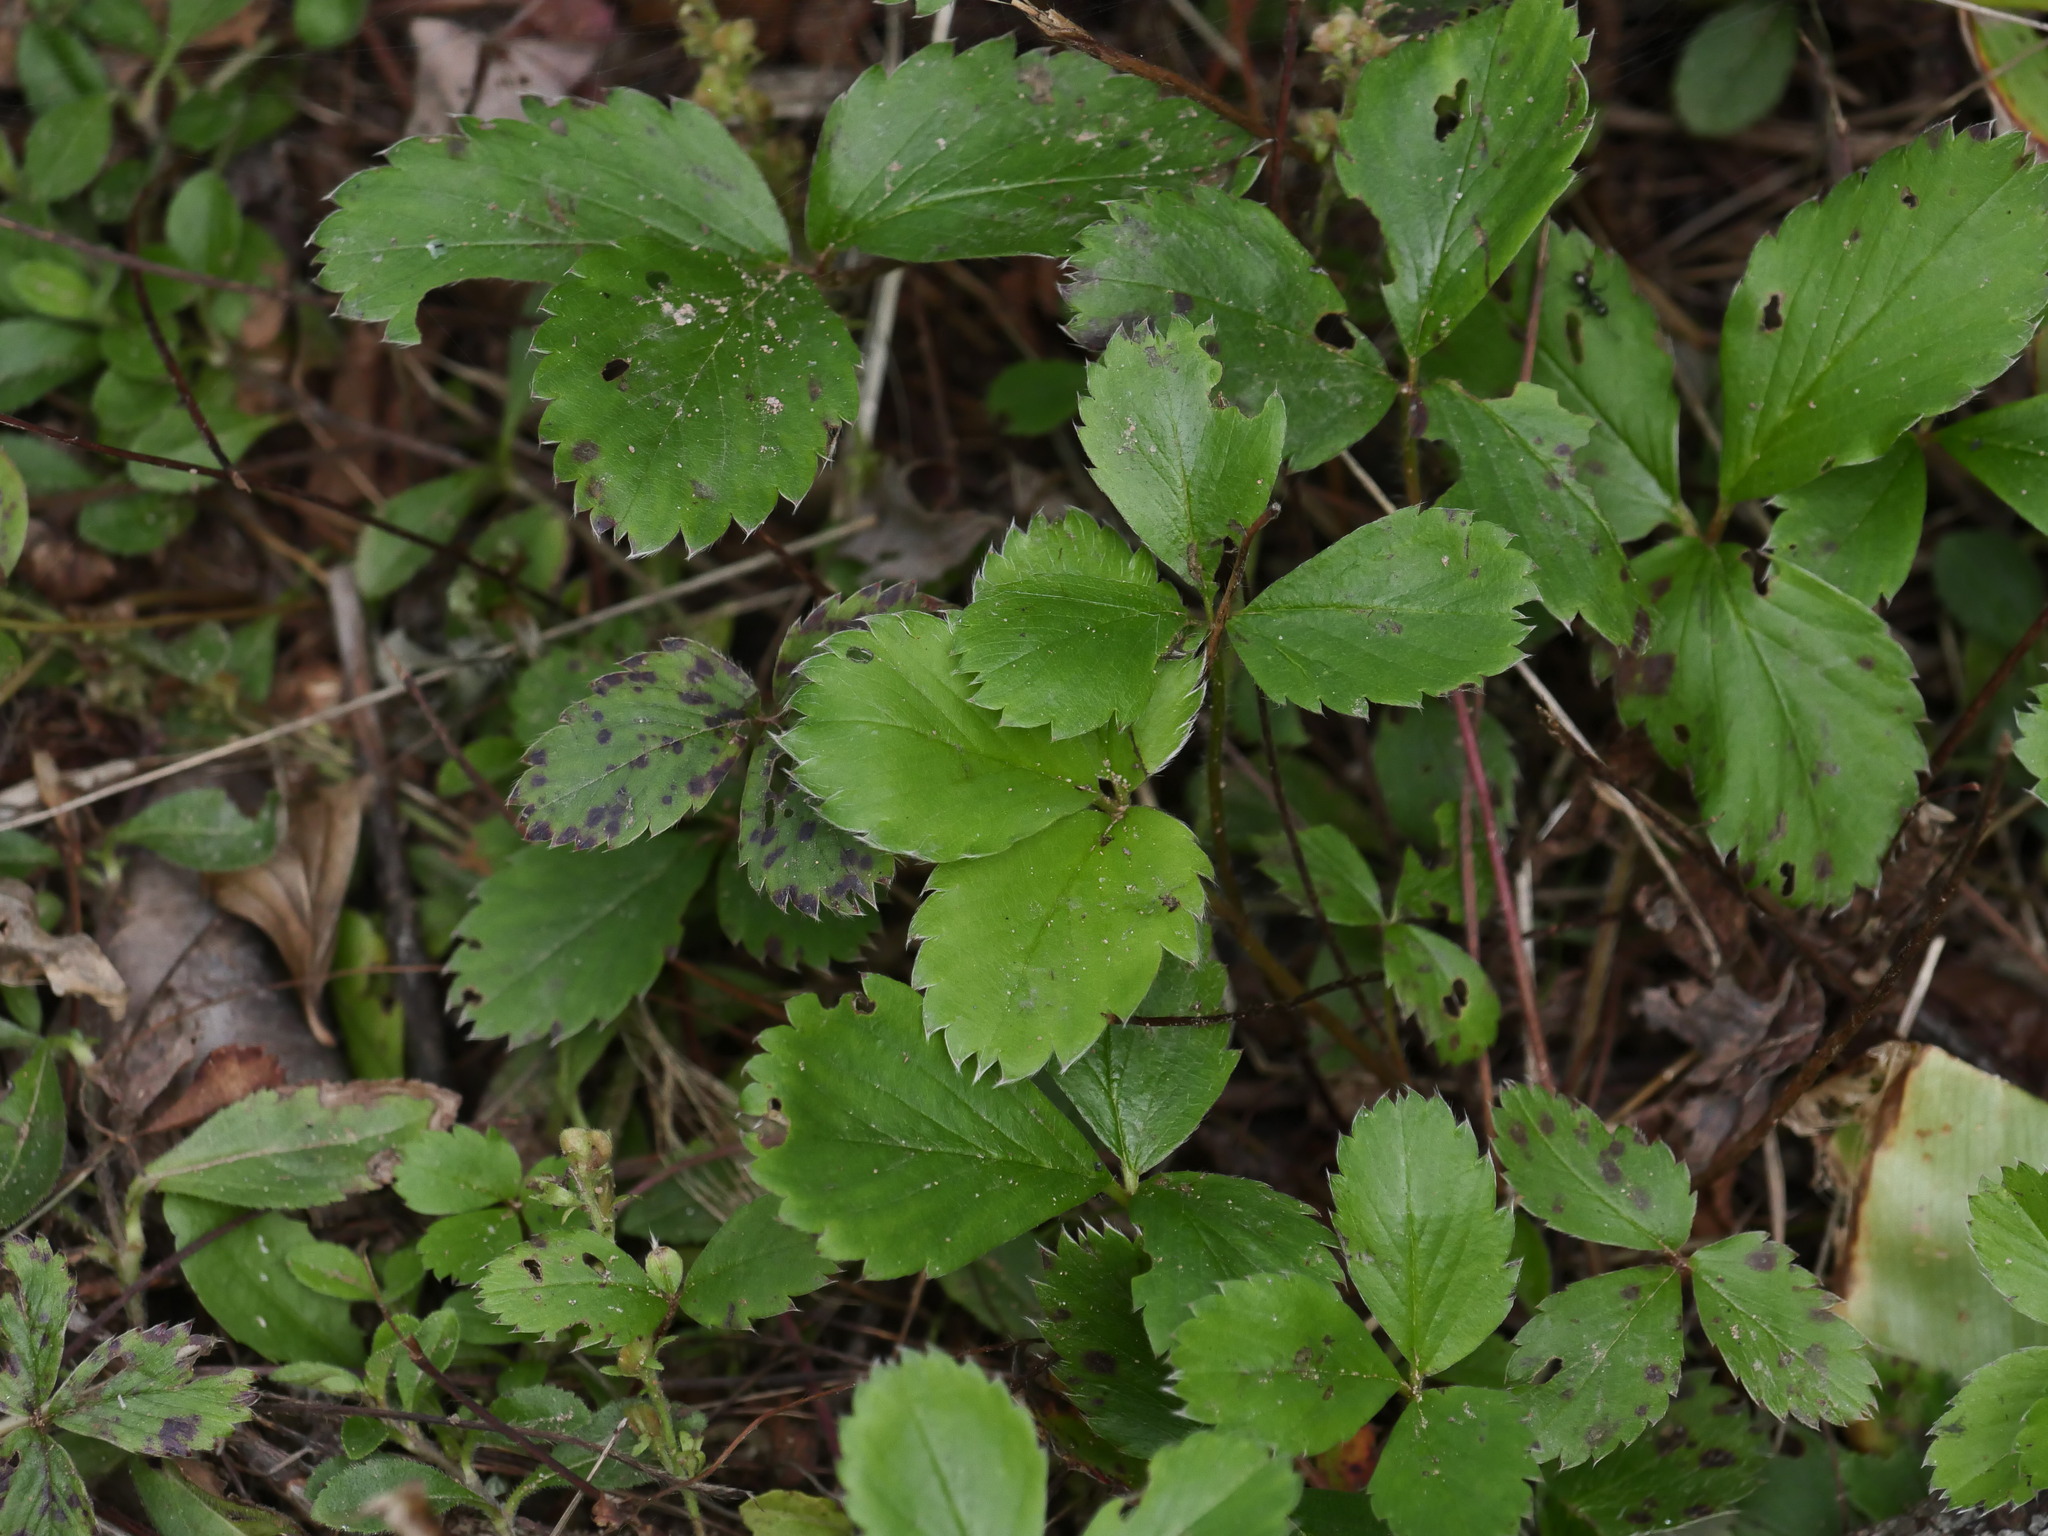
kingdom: Plantae
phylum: Tracheophyta
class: Magnoliopsida
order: Rosales
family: Rosaceae
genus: Fragaria
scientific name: Fragaria virginiana
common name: Thickleaved wild strawberry
